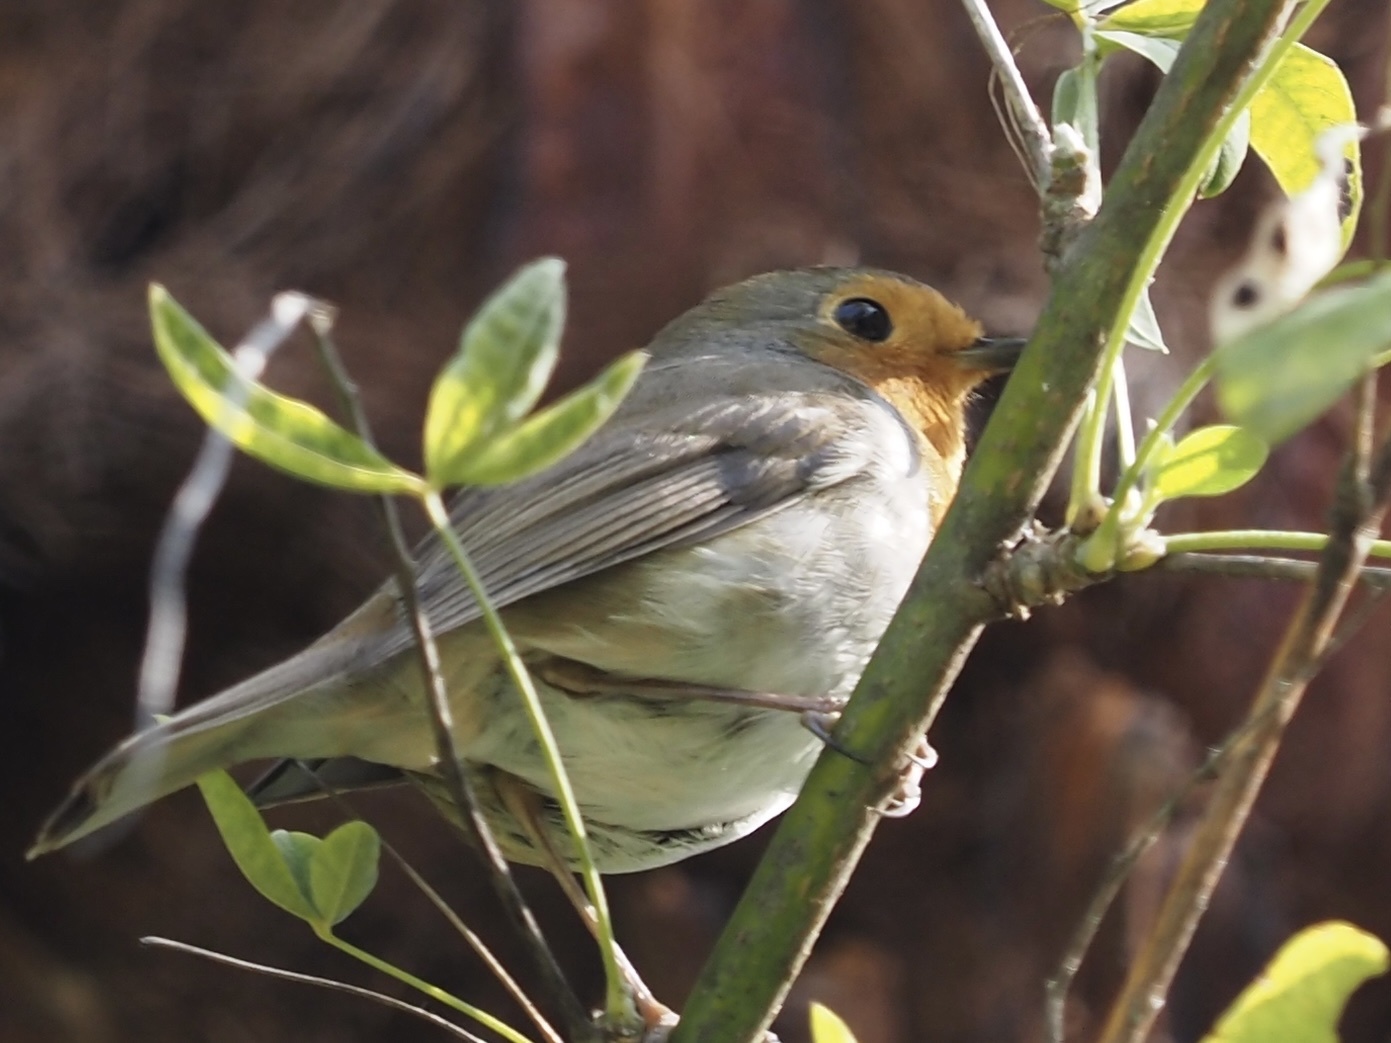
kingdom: Animalia
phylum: Chordata
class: Aves
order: Passeriformes
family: Muscicapidae
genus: Erithacus
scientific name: Erithacus rubecula
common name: European robin
